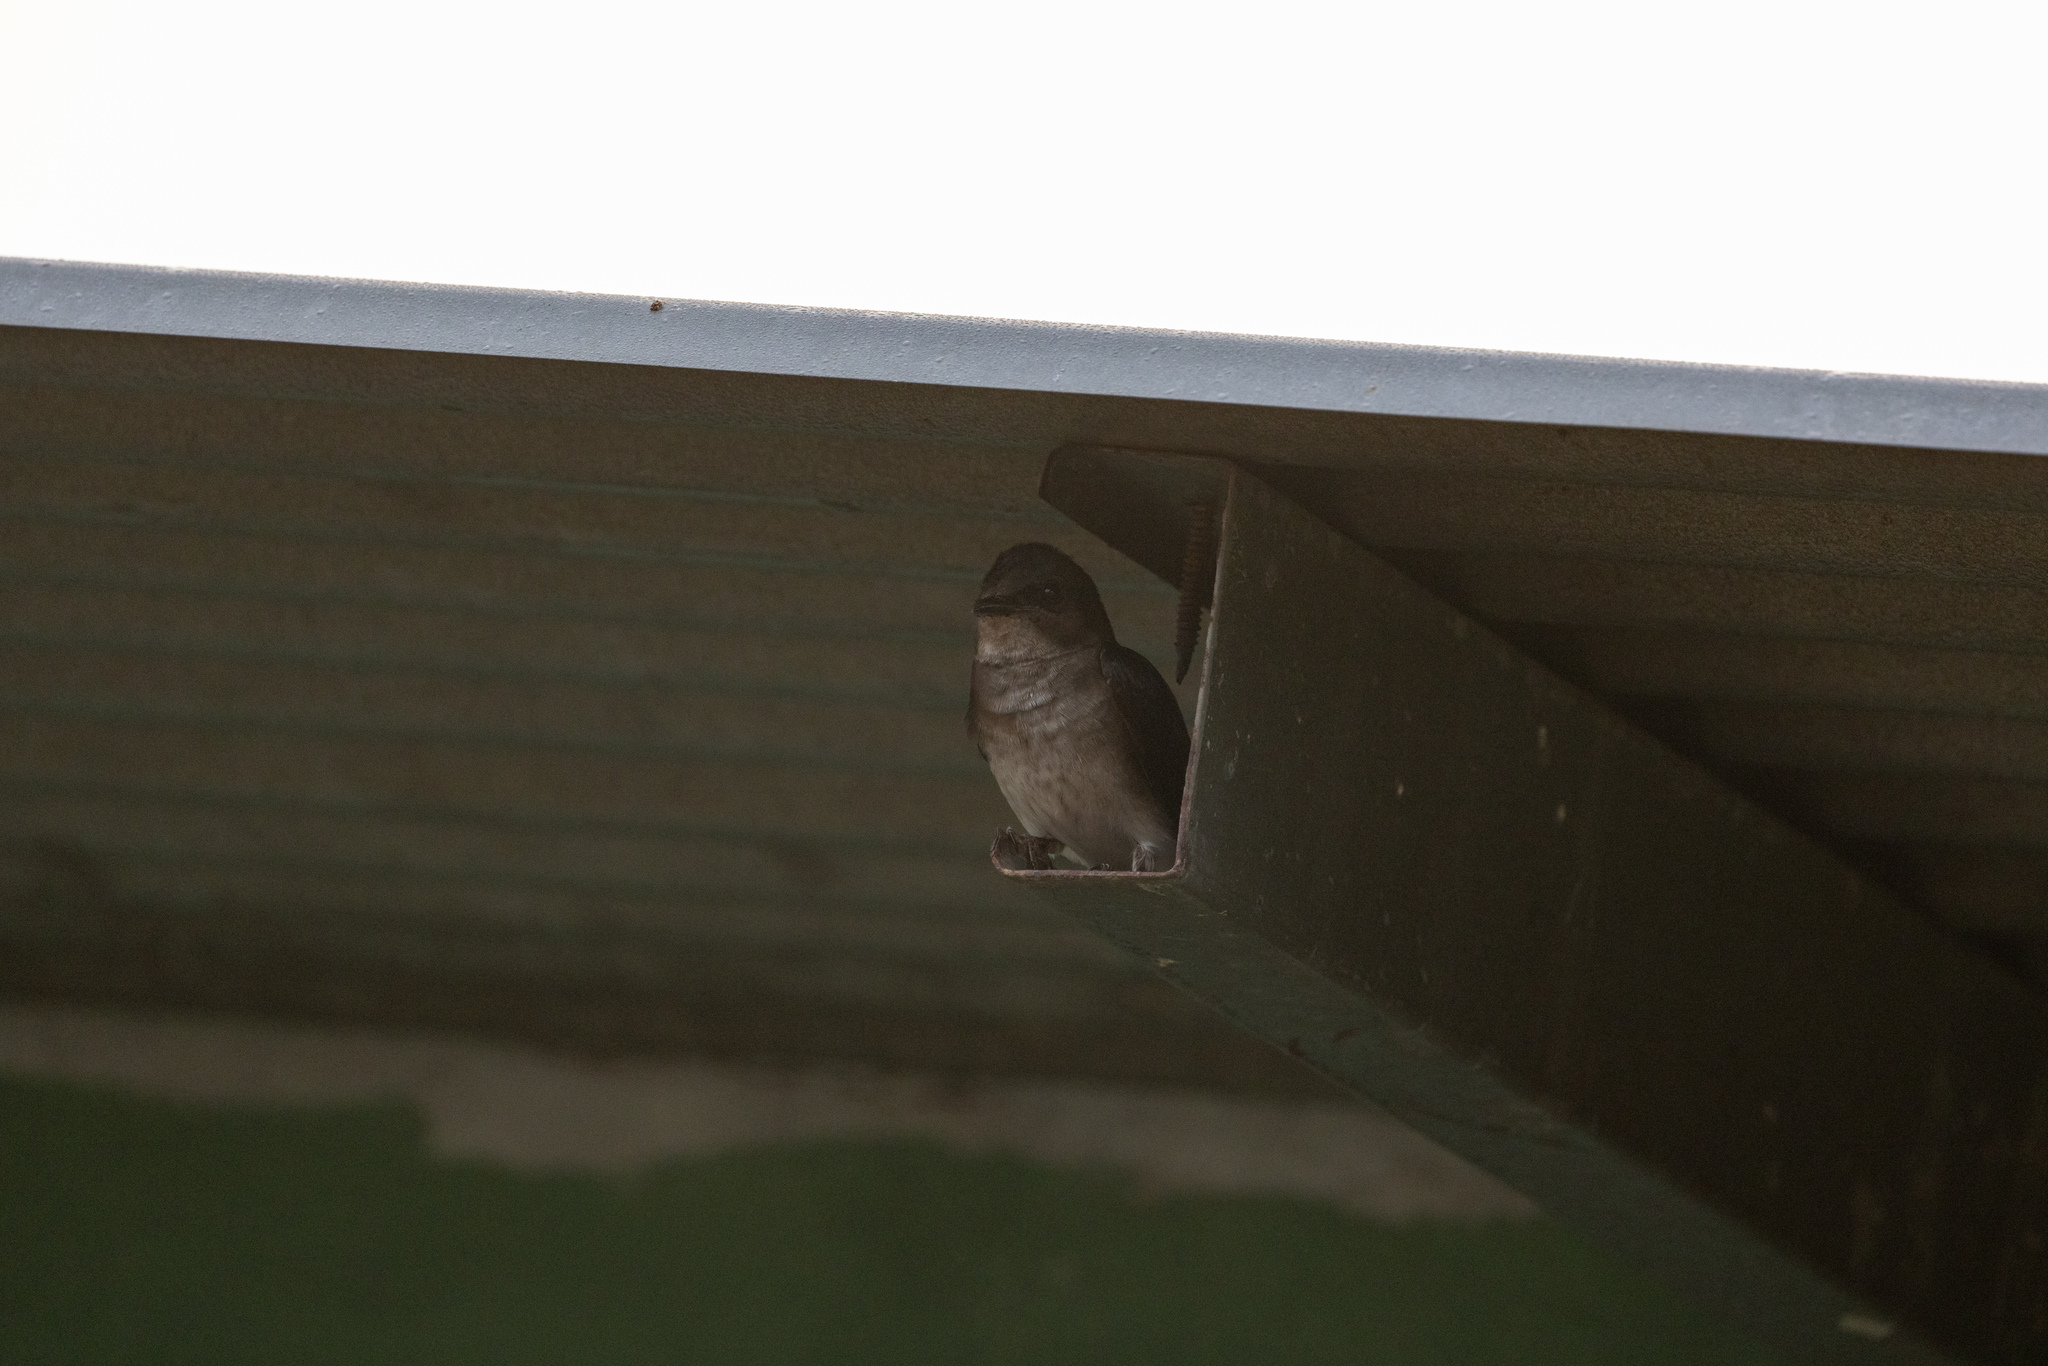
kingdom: Animalia
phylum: Chordata
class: Aves
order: Passeriformes
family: Hirundinidae
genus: Progne
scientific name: Progne chalybea
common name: Grey-breasted martin
